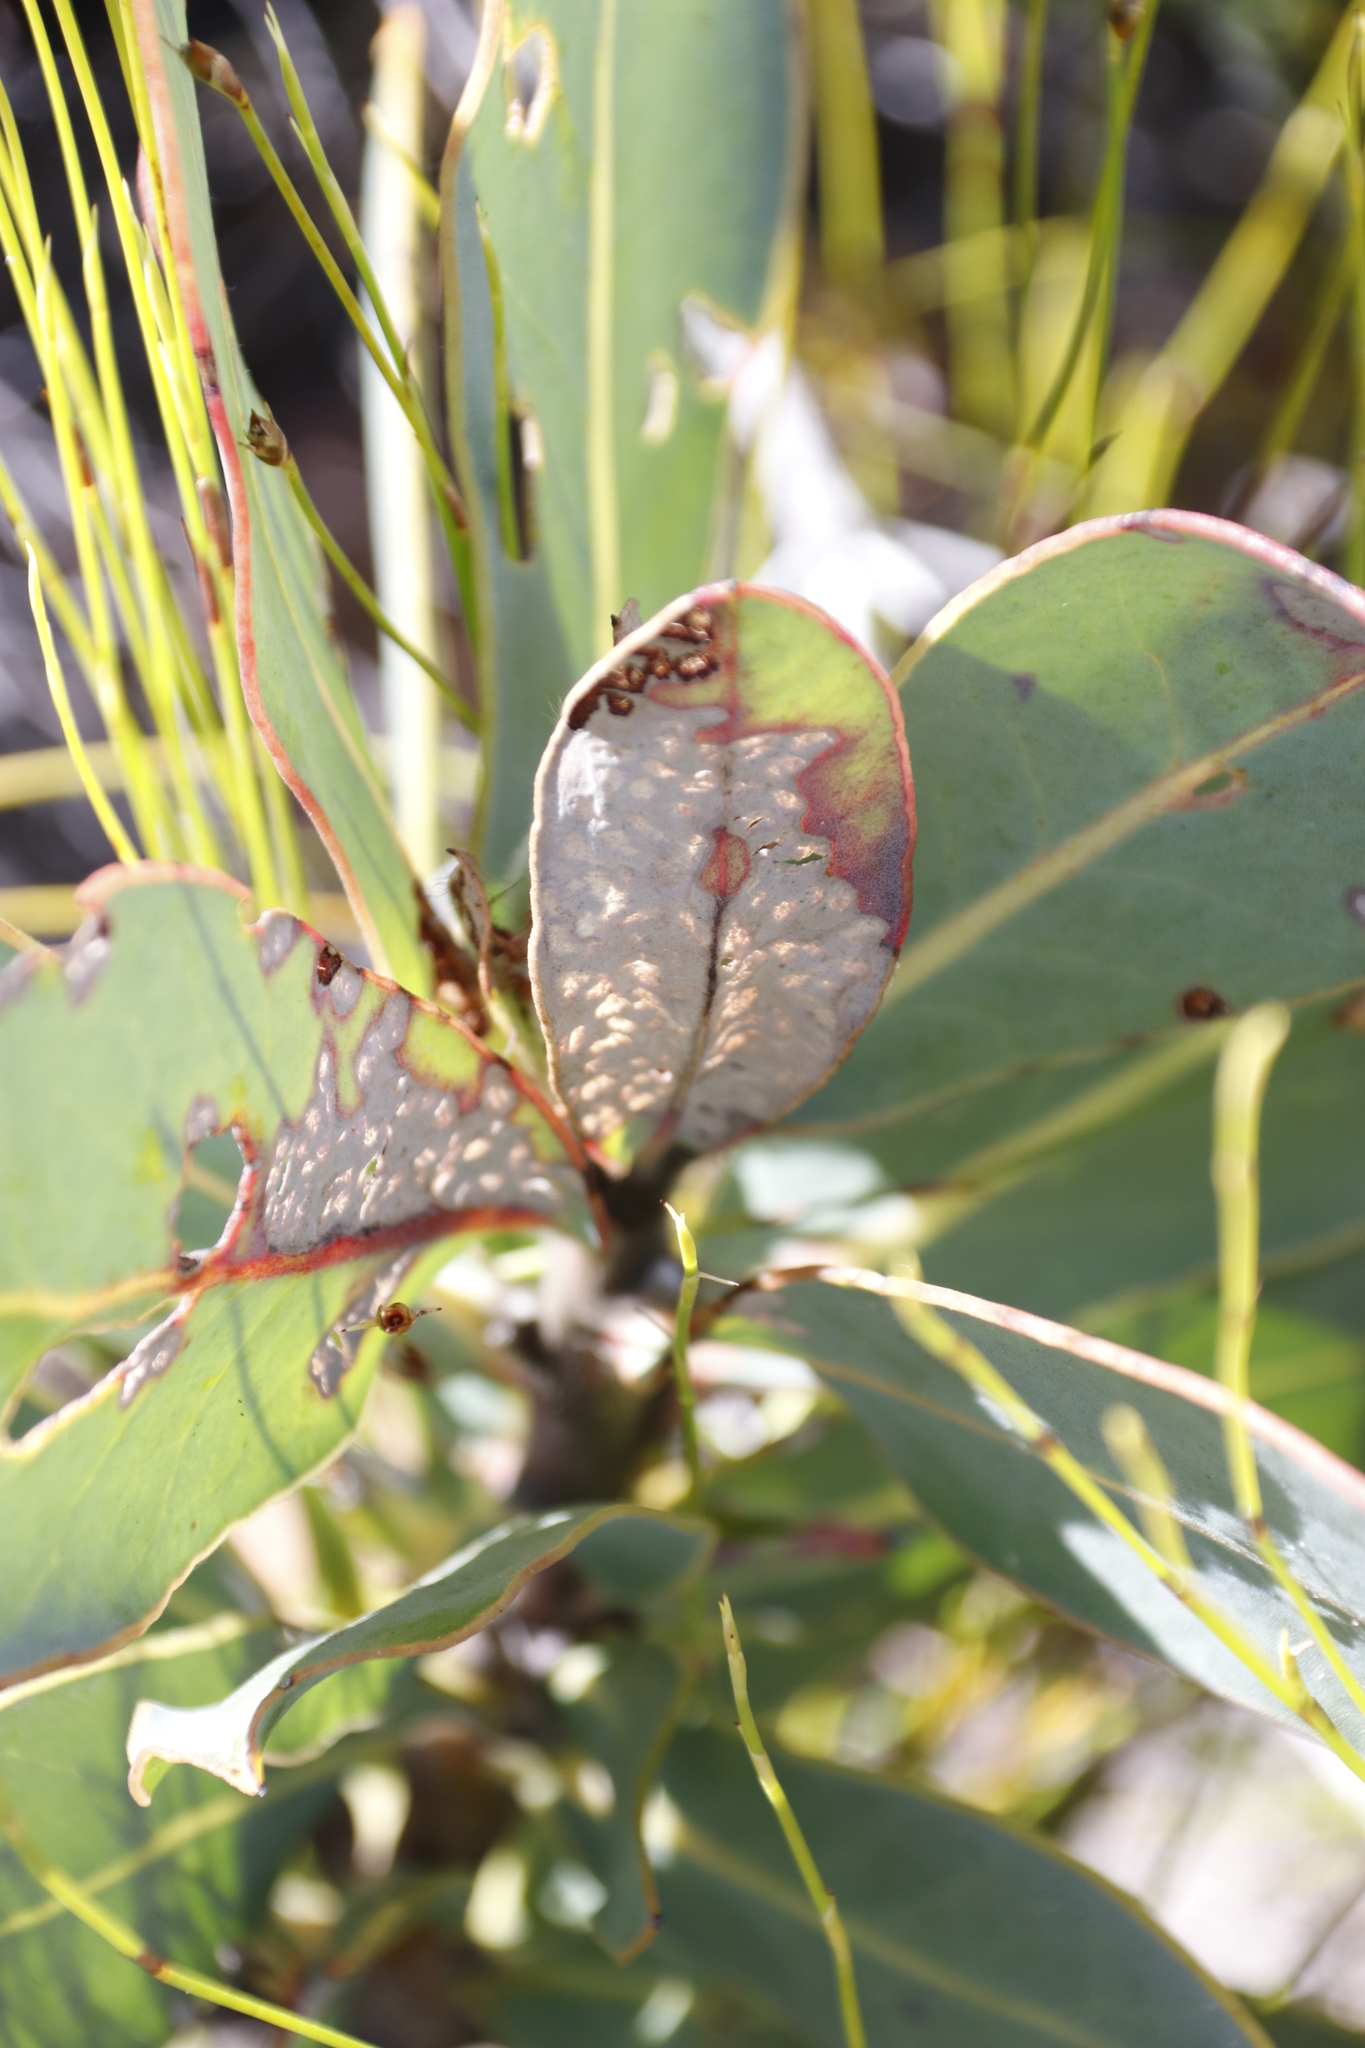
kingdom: Plantae
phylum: Tracheophyta
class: Magnoliopsida
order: Proteales
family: Proteaceae
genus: Protea
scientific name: Protea magnifica
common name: Bearded sugarbush
